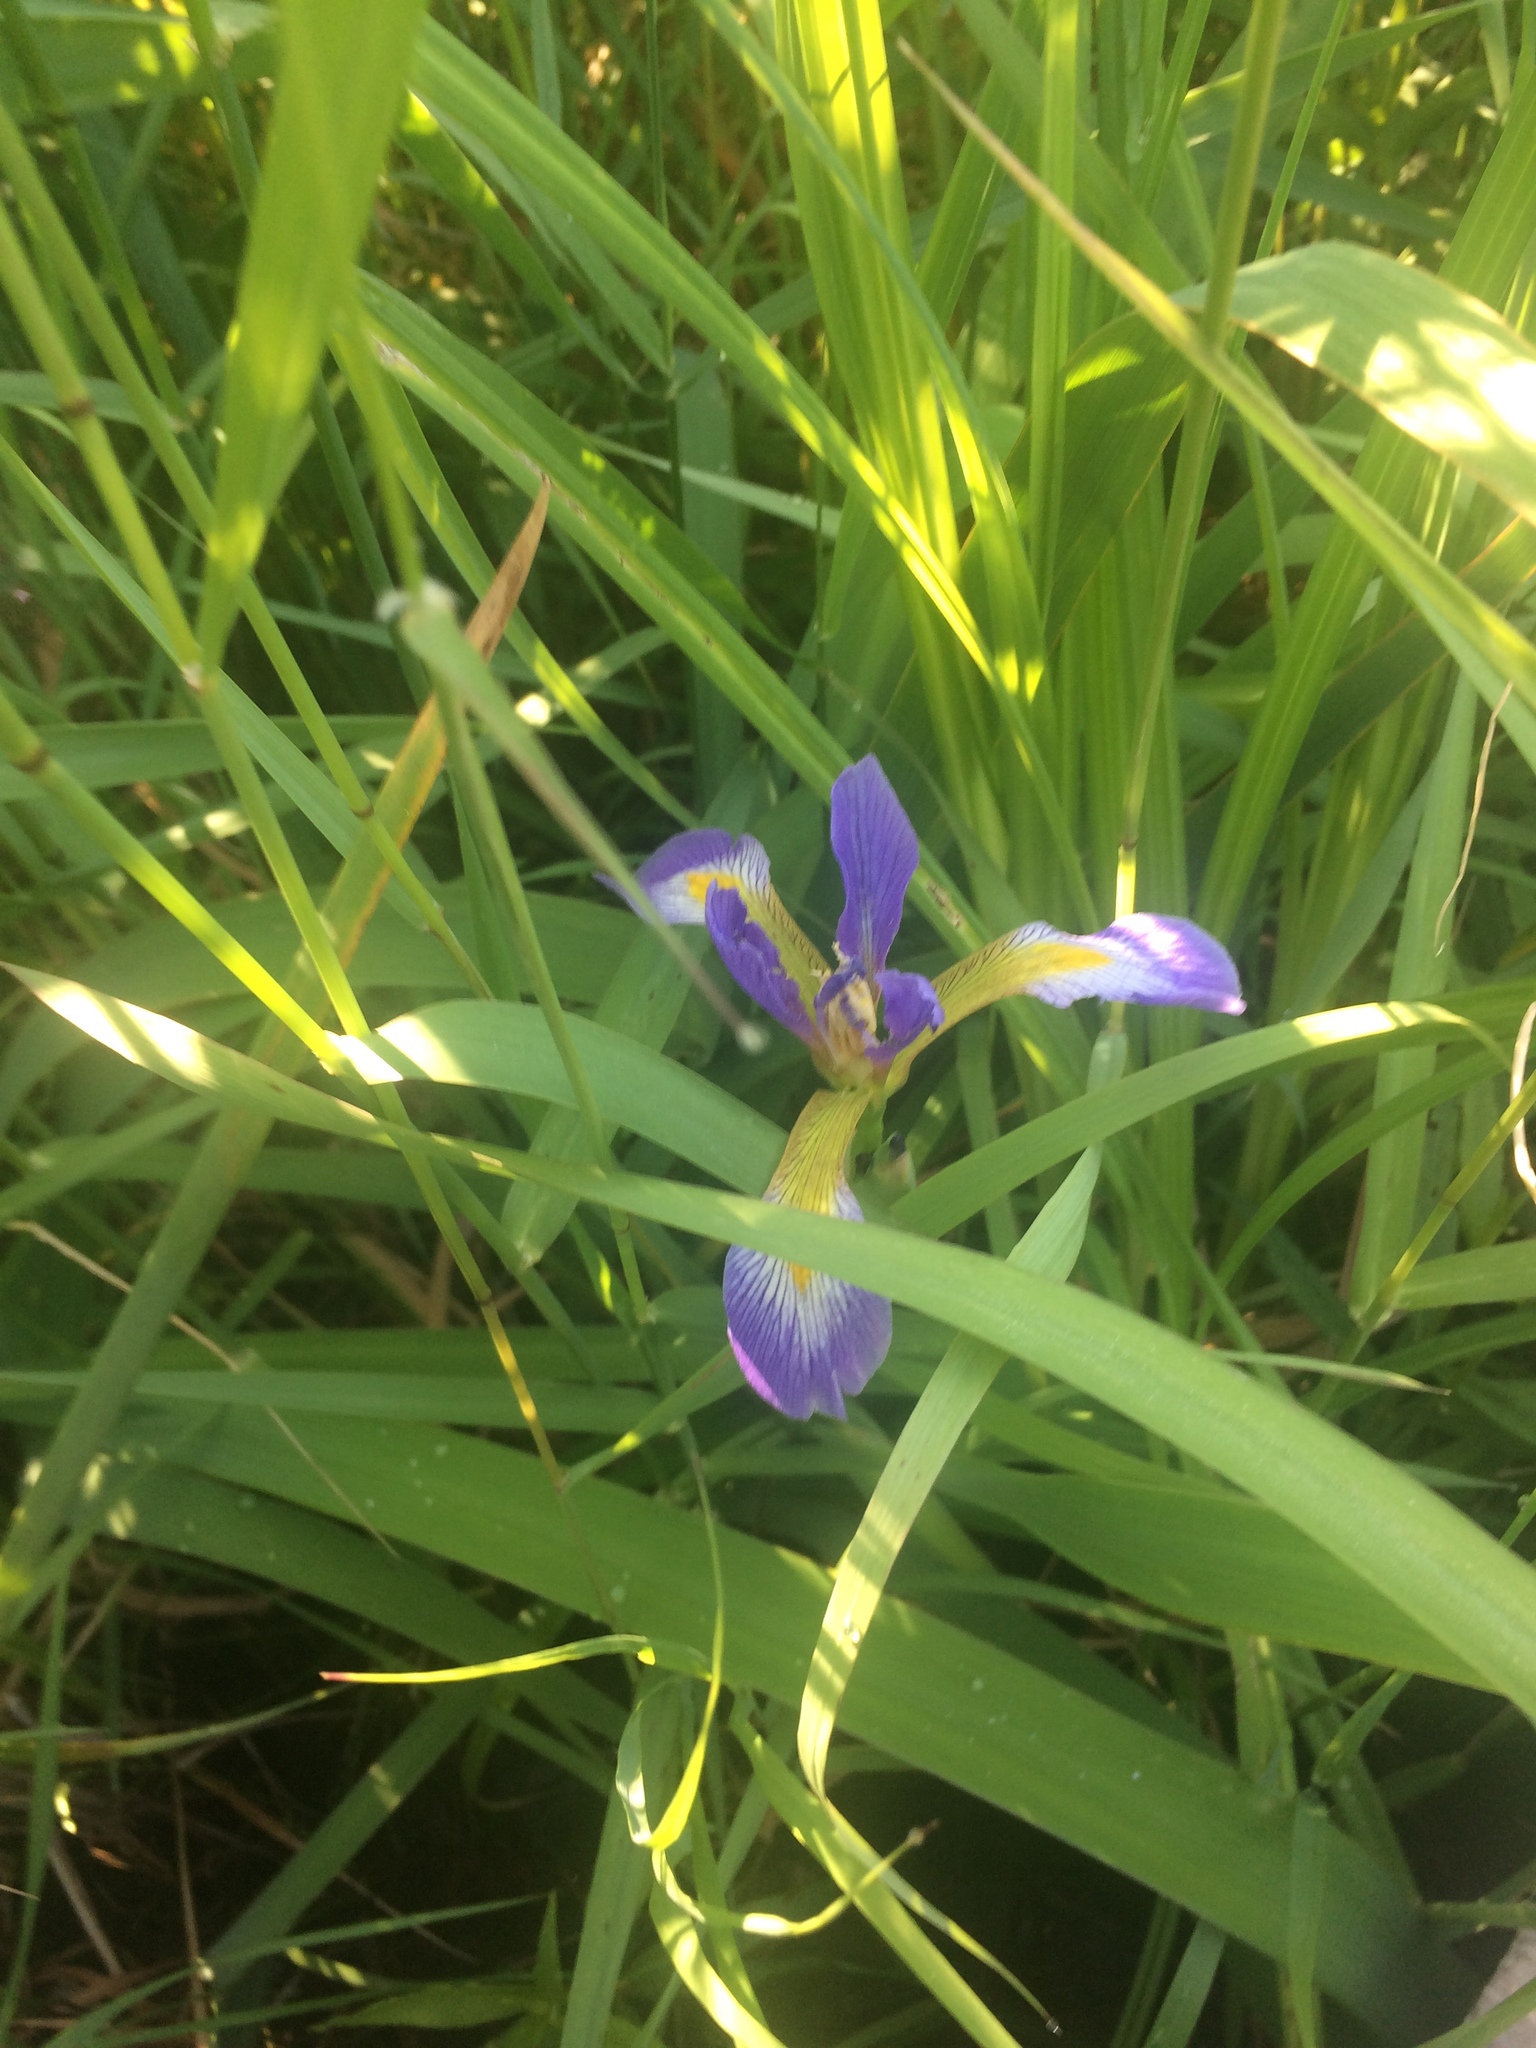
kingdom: Plantae
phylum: Tracheophyta
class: Liliopsida
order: Asparagales
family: Iridaceae
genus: Iris
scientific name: Iris virginica
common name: Southern blue flag
